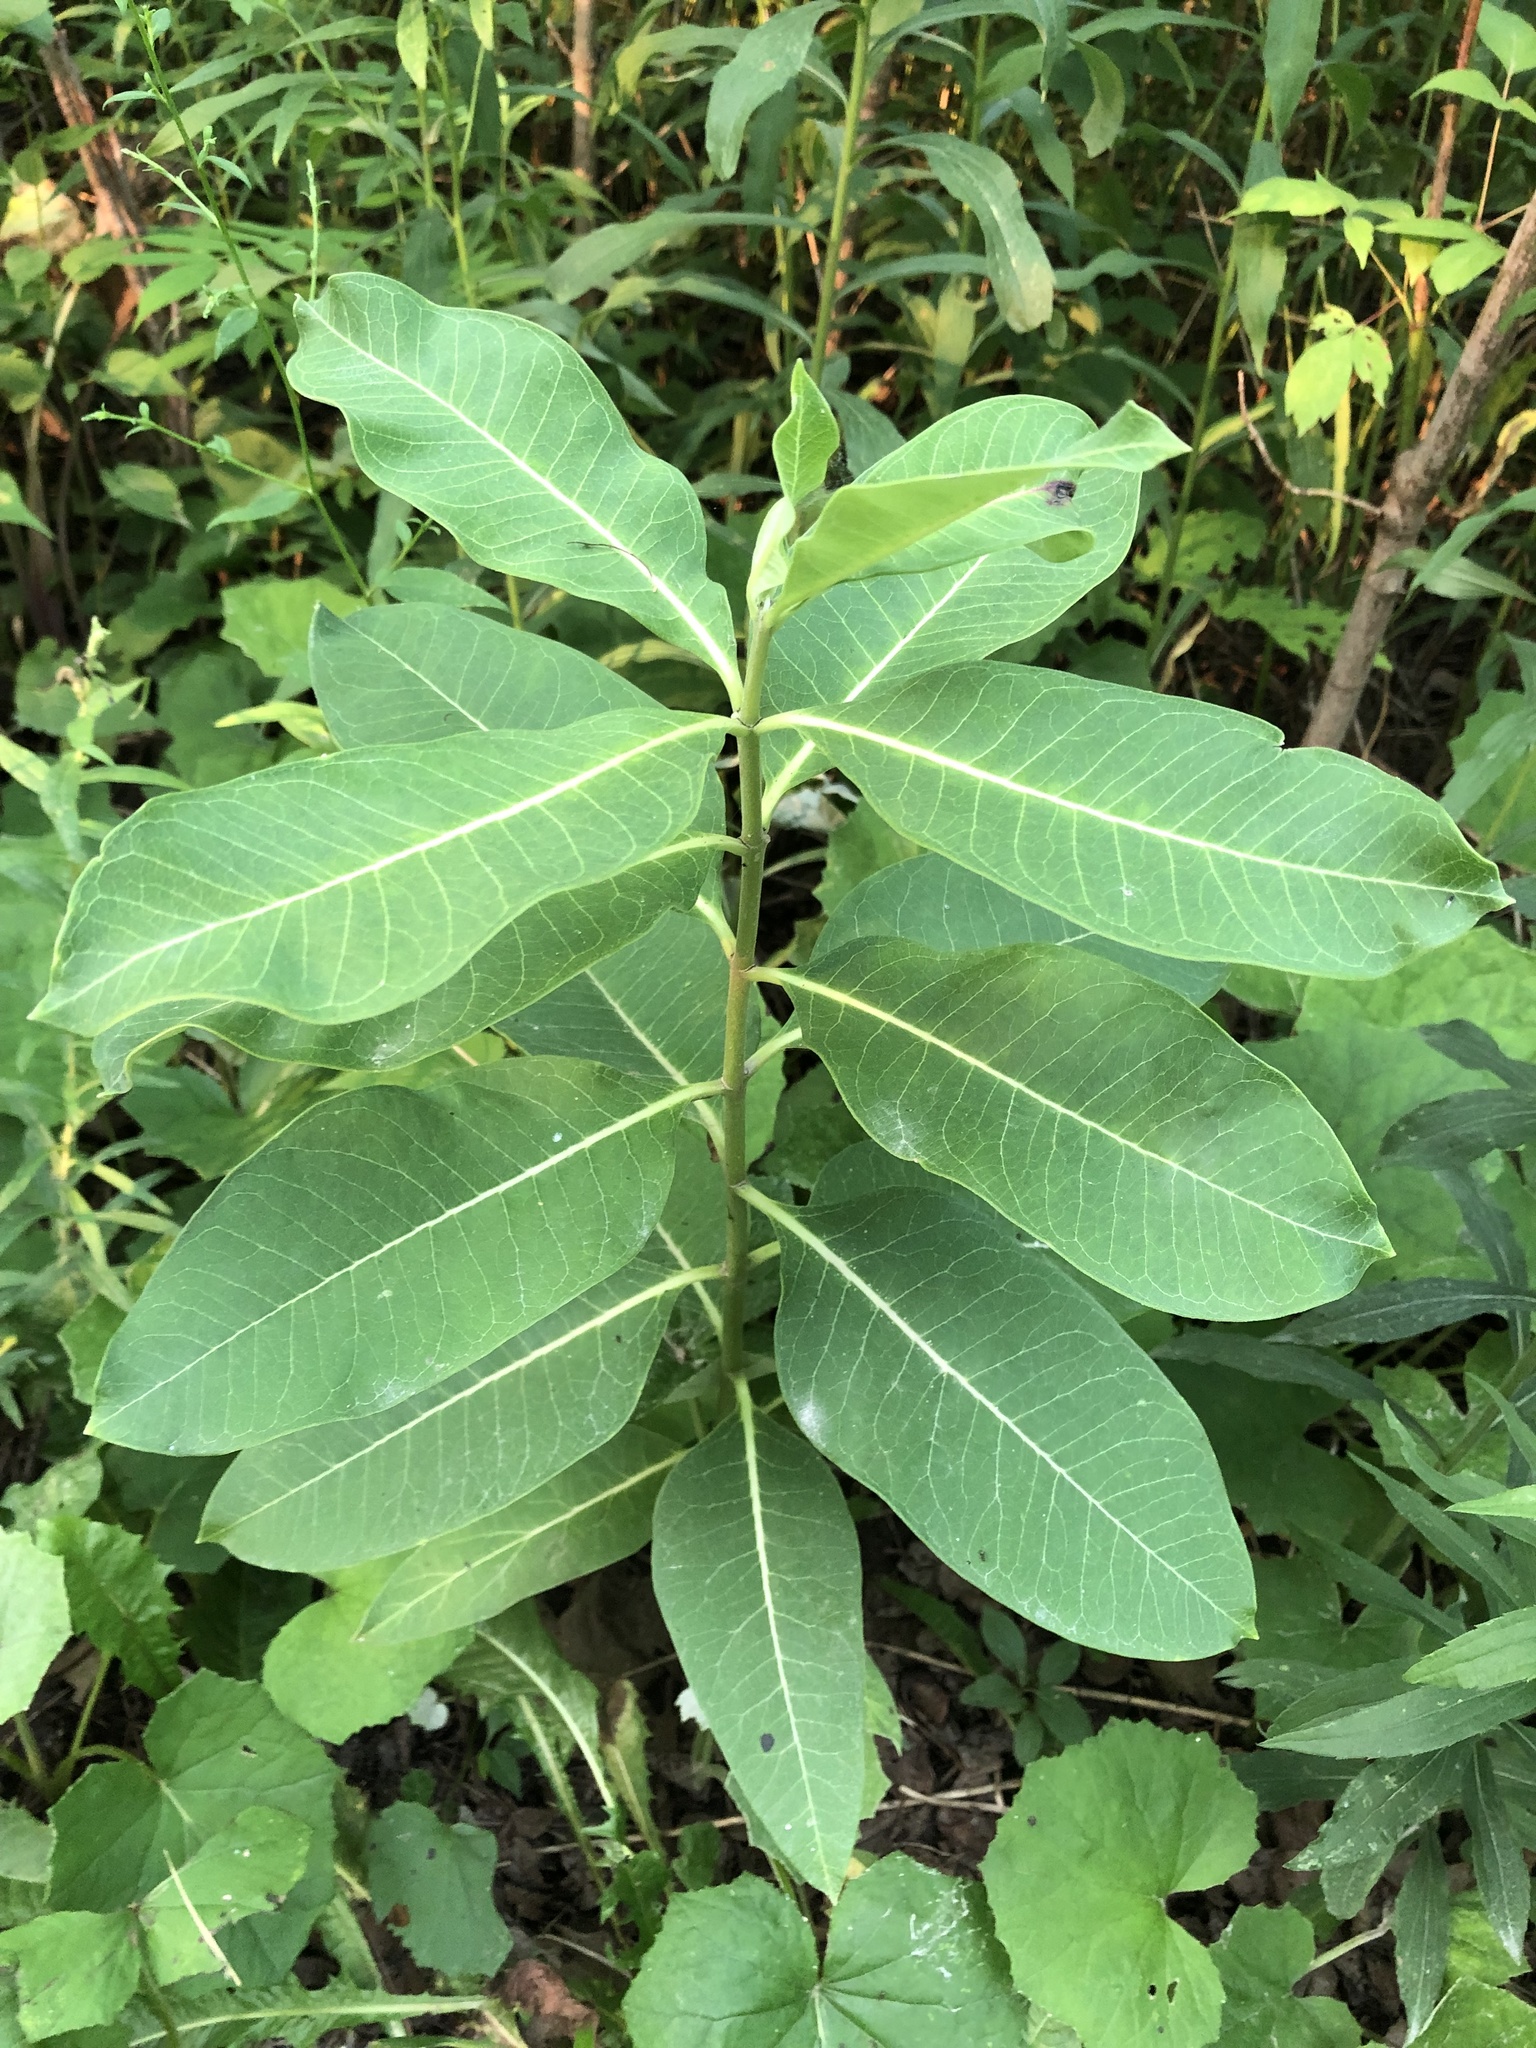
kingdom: Plantae
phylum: Tracheophyta
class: Magnoliopsida
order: Gentianales
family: Apocynaceae
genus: Asclepias
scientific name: Asclepias syriaca
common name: Common milkweed
